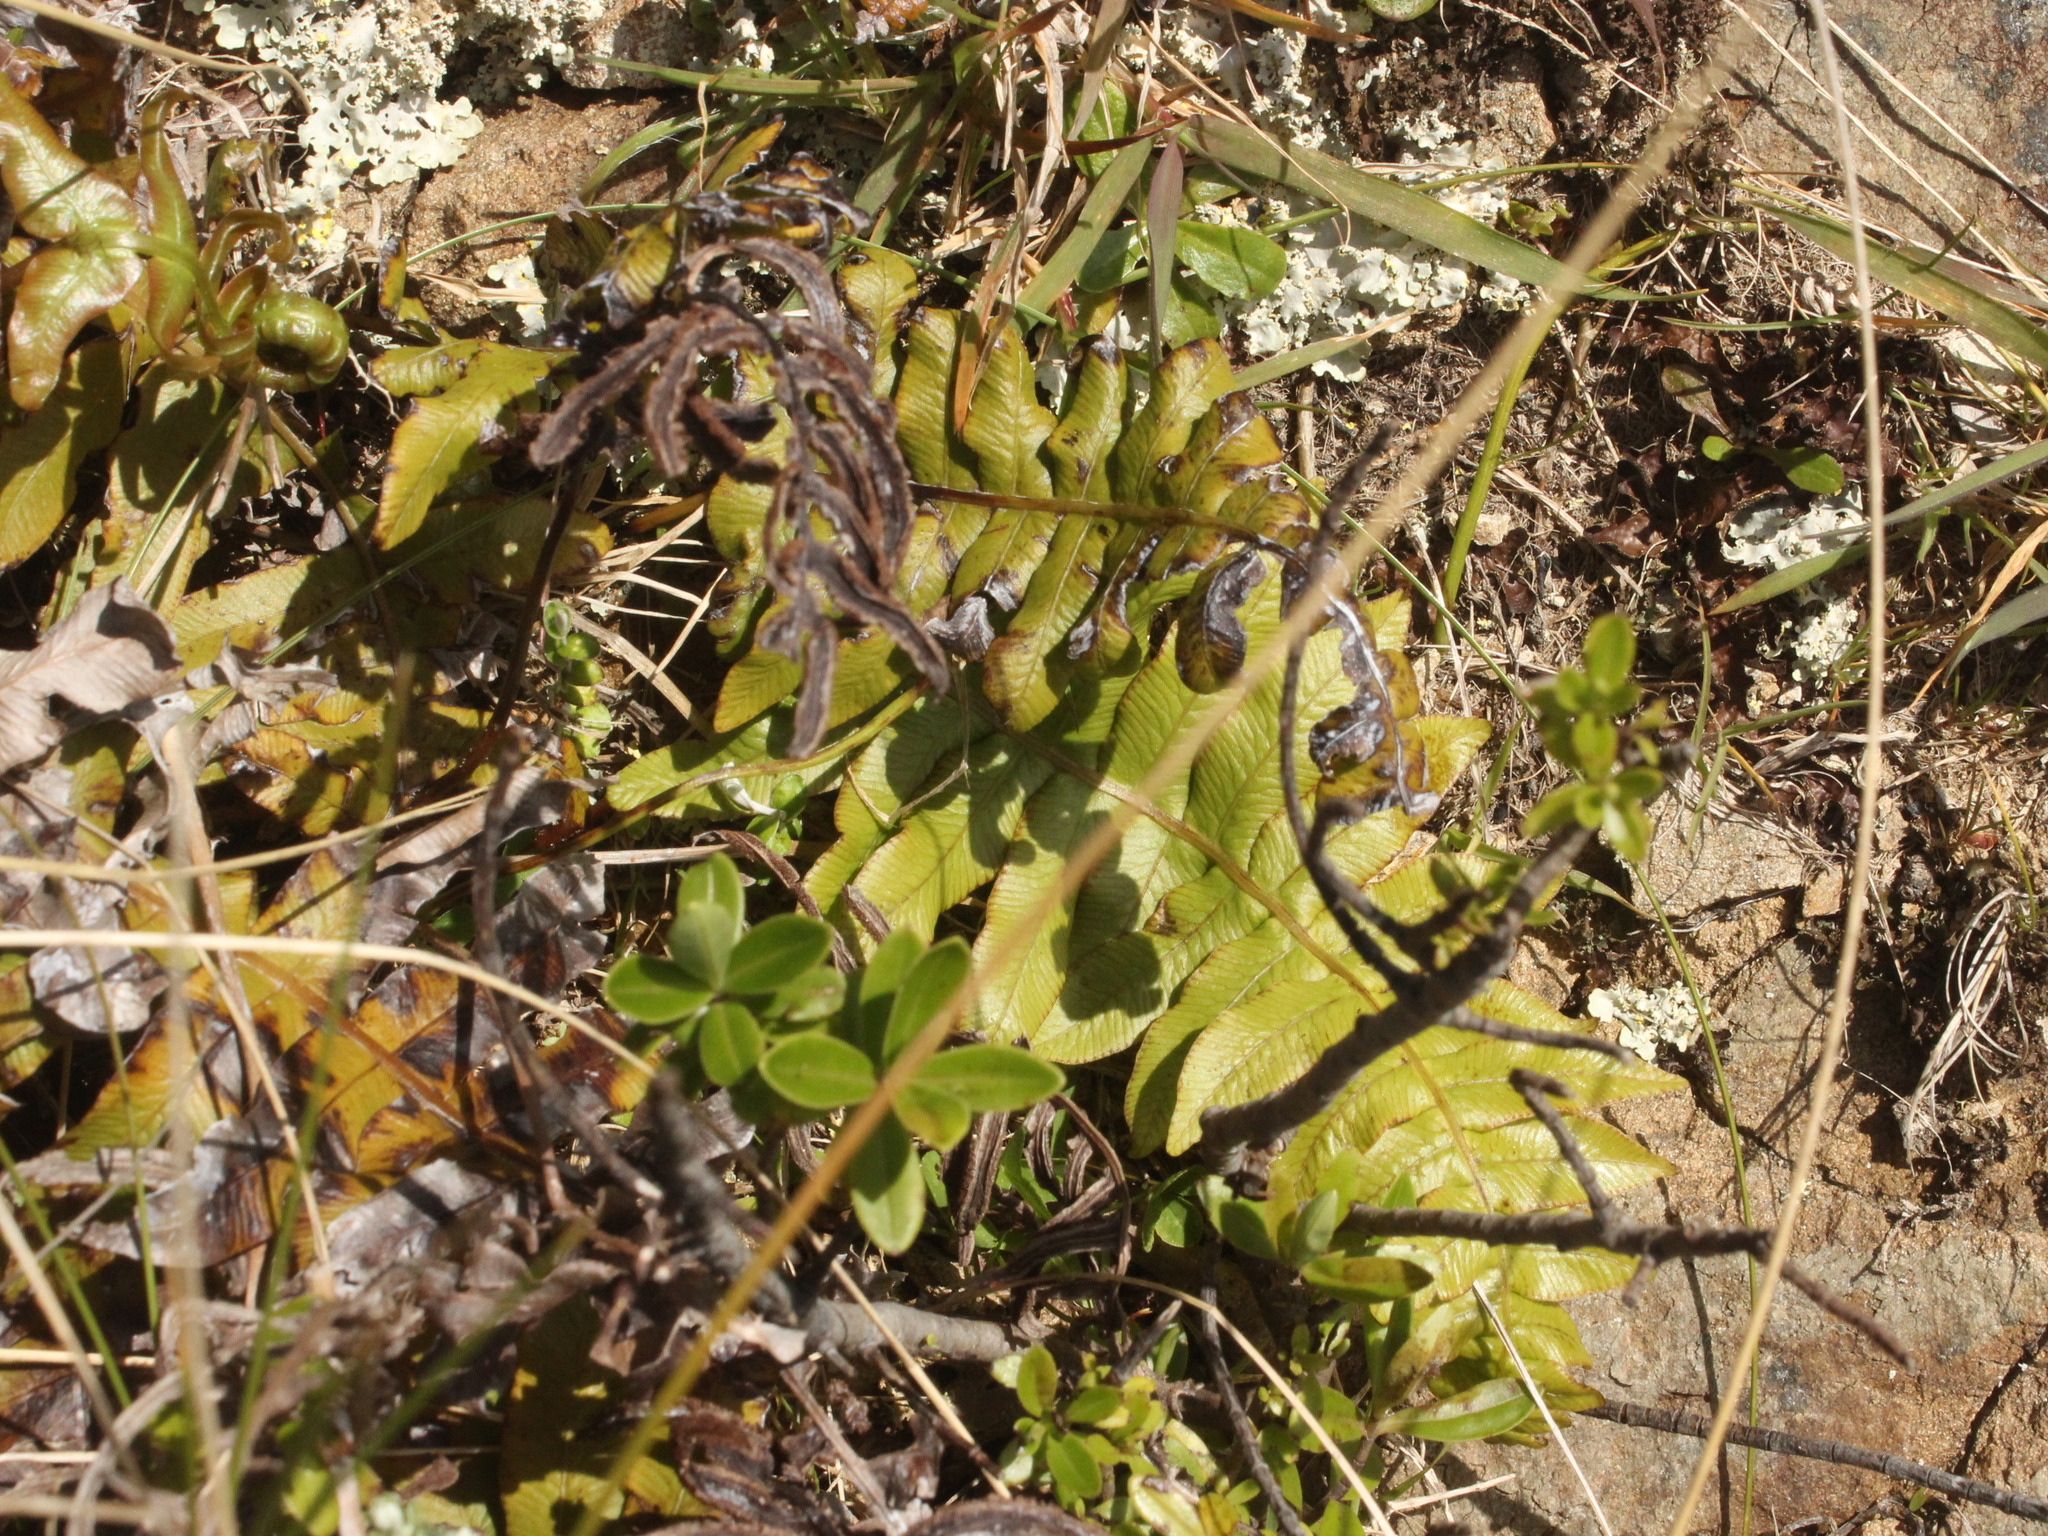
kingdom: Plantae
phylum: Tracheophyta
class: Polypodiopsida
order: Polypodiales
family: Blechnaceae
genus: Cranfillia
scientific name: Cranfillia deltoides
